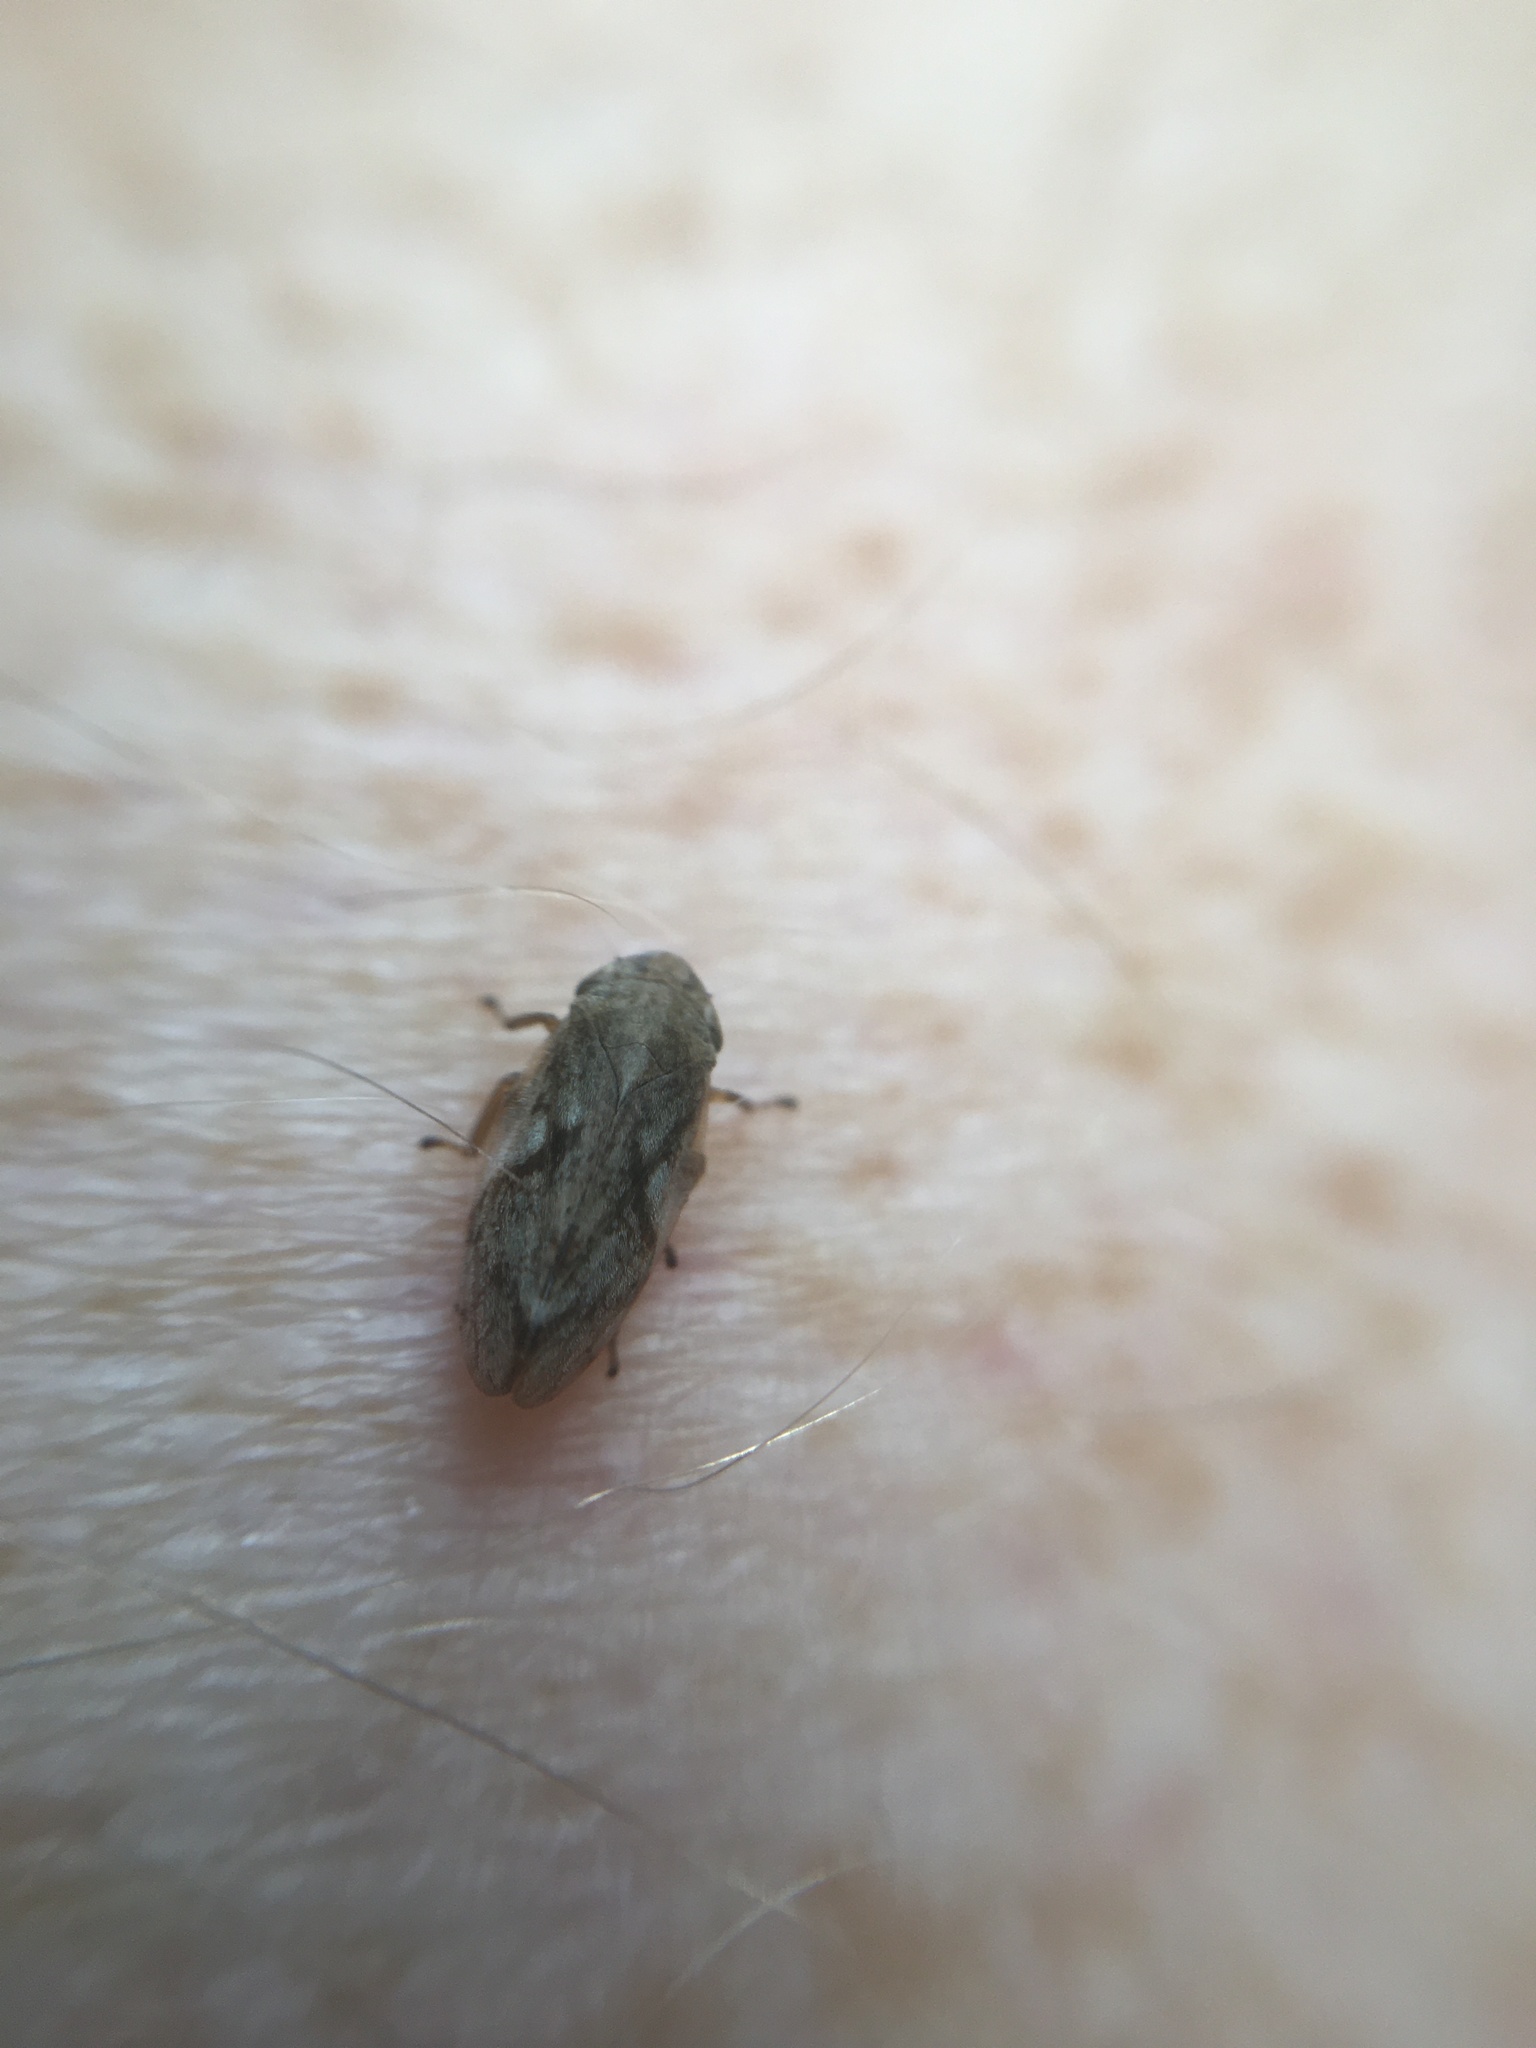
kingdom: Animalia
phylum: Arthropoda
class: Insecta
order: Hemiptera
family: Aphrophoridae
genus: Philaenus
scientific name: Philaenus spumarius
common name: Meadow spittlebug
